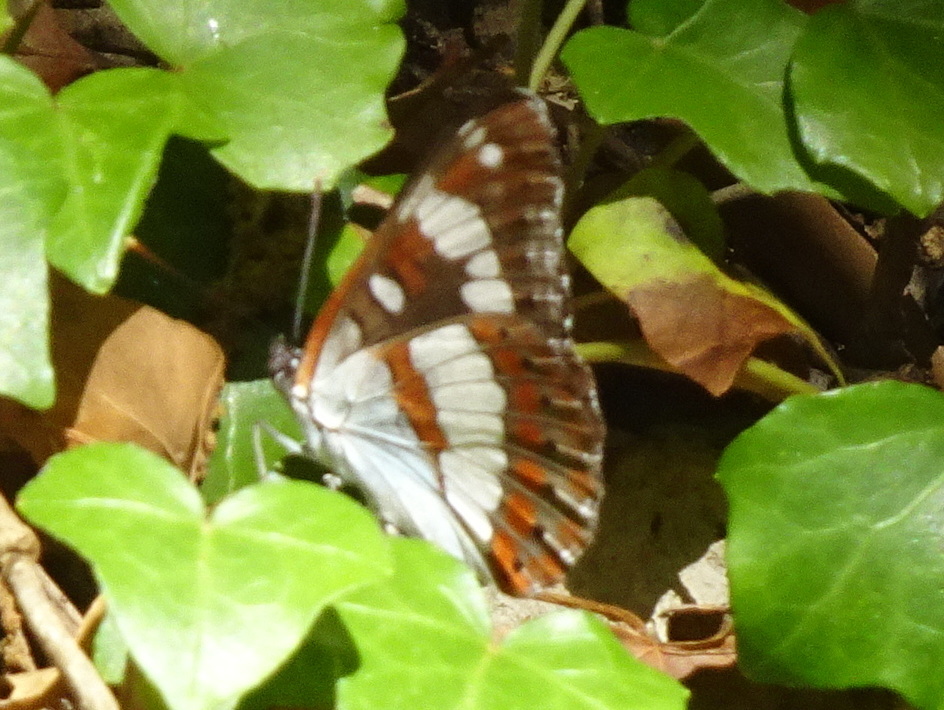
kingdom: Animalia
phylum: Arthropoda
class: Insecta
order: Lepidoptera
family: Nymphalidae
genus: Limenitis
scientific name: Limenitis reducta
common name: Southern white admiral
